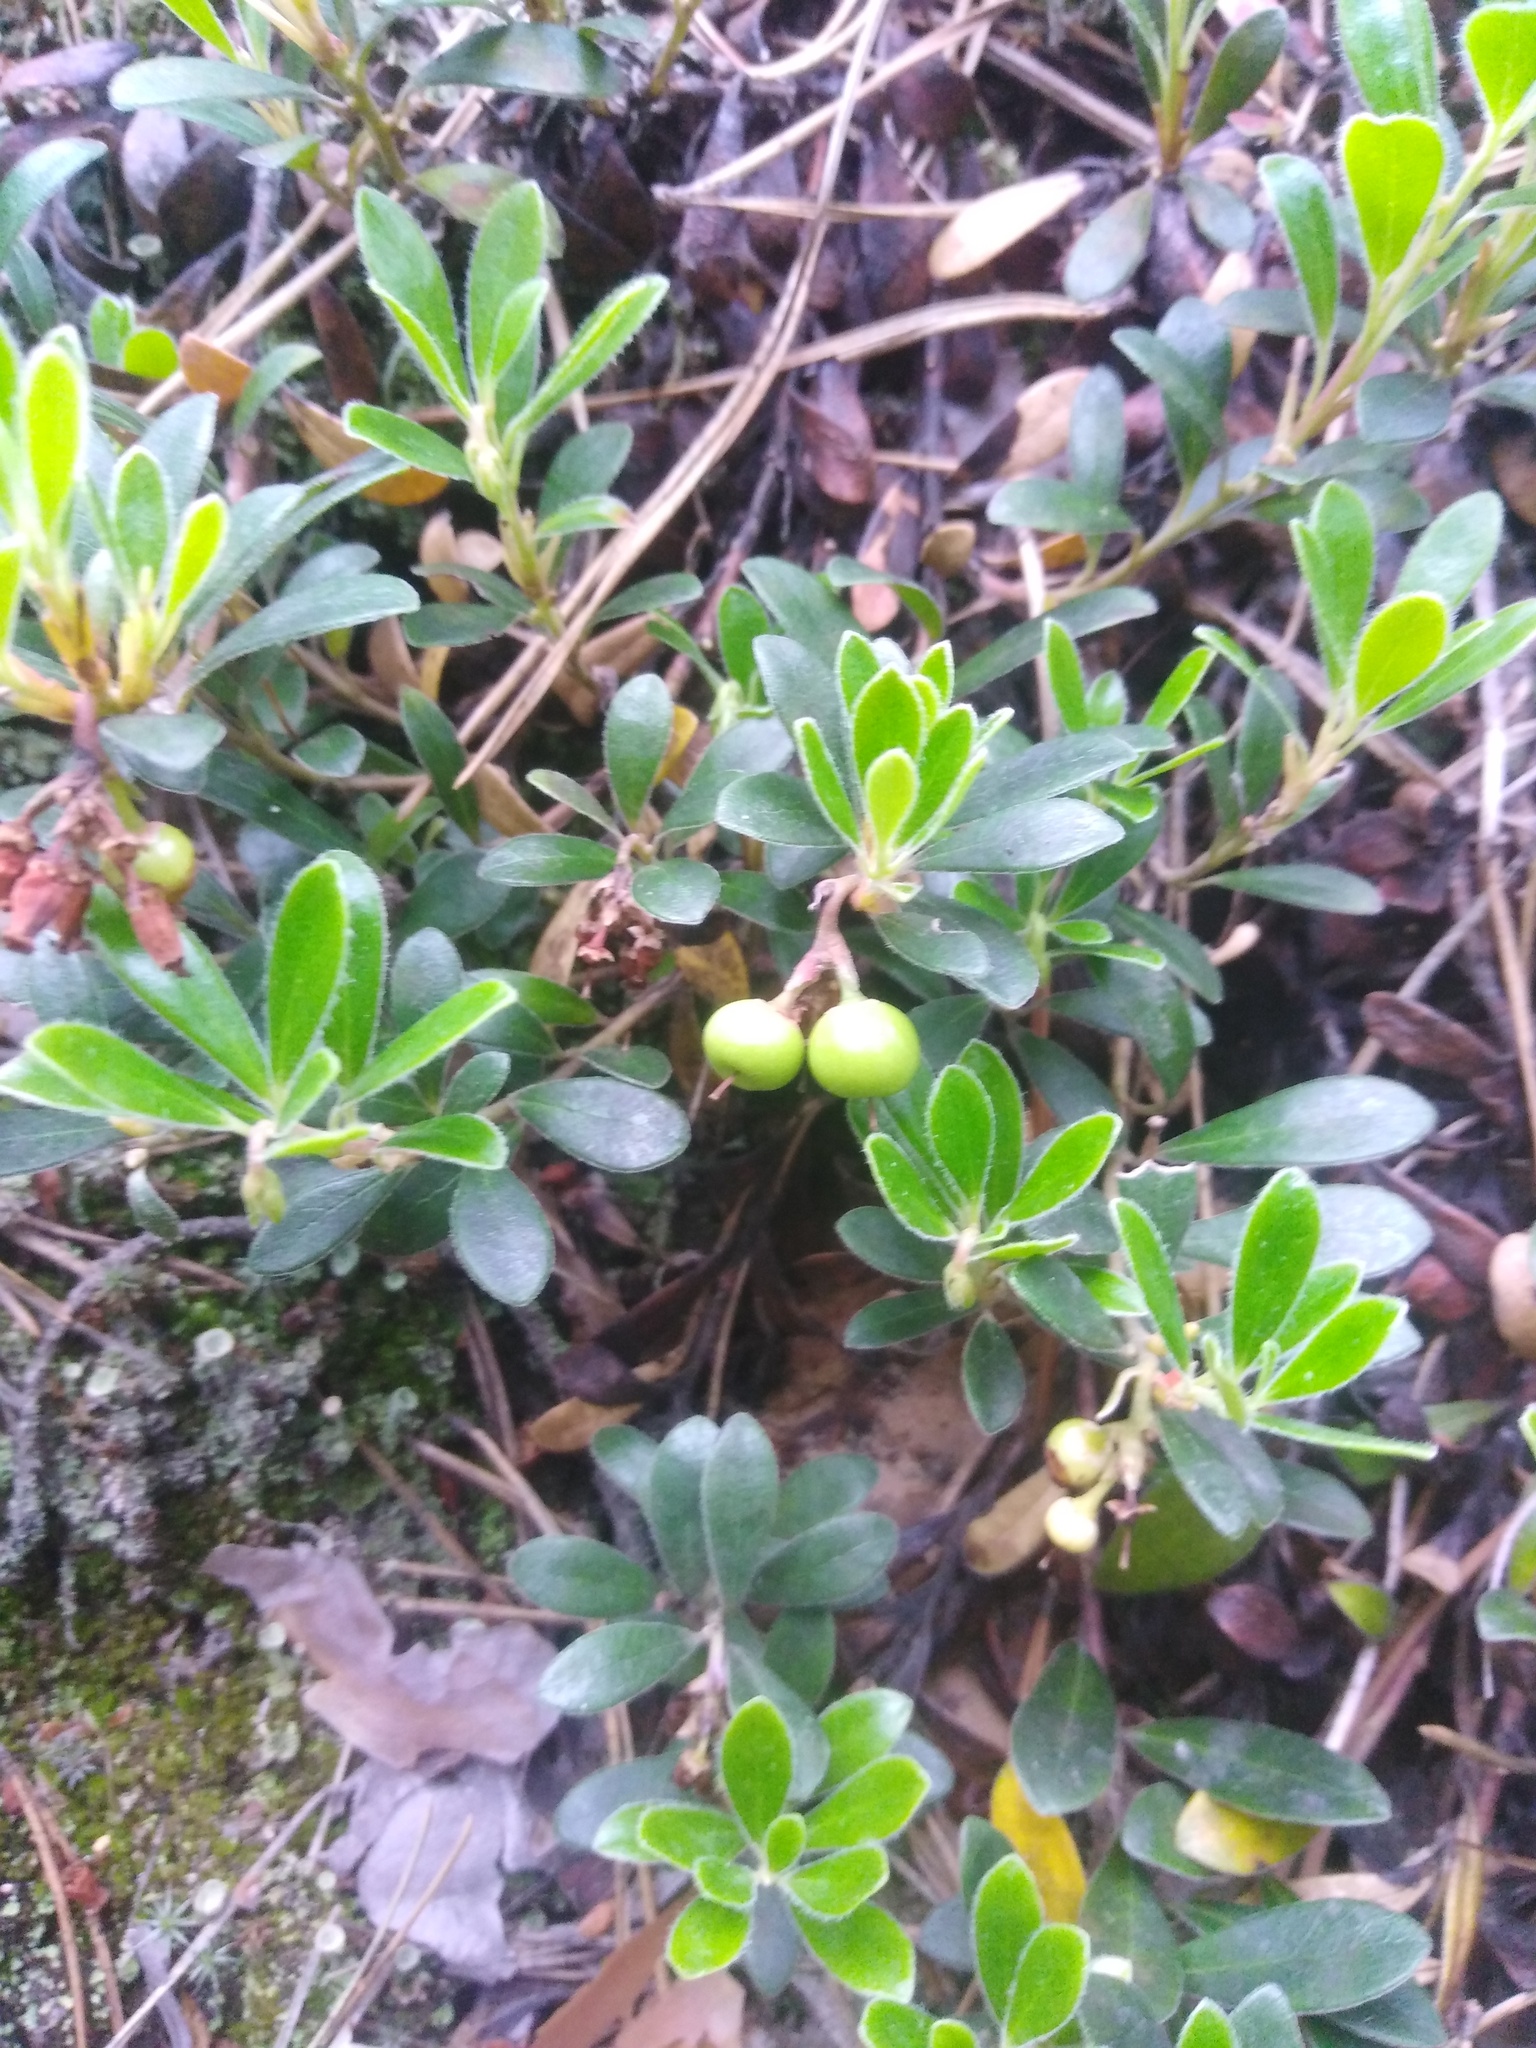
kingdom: Plantae
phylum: Tracheophyta
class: Magnoliopsida
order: Ericales
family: Ericaceae
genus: Arctostaphylos
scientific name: Arctostaphylos uva-ursi
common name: Bearberry
